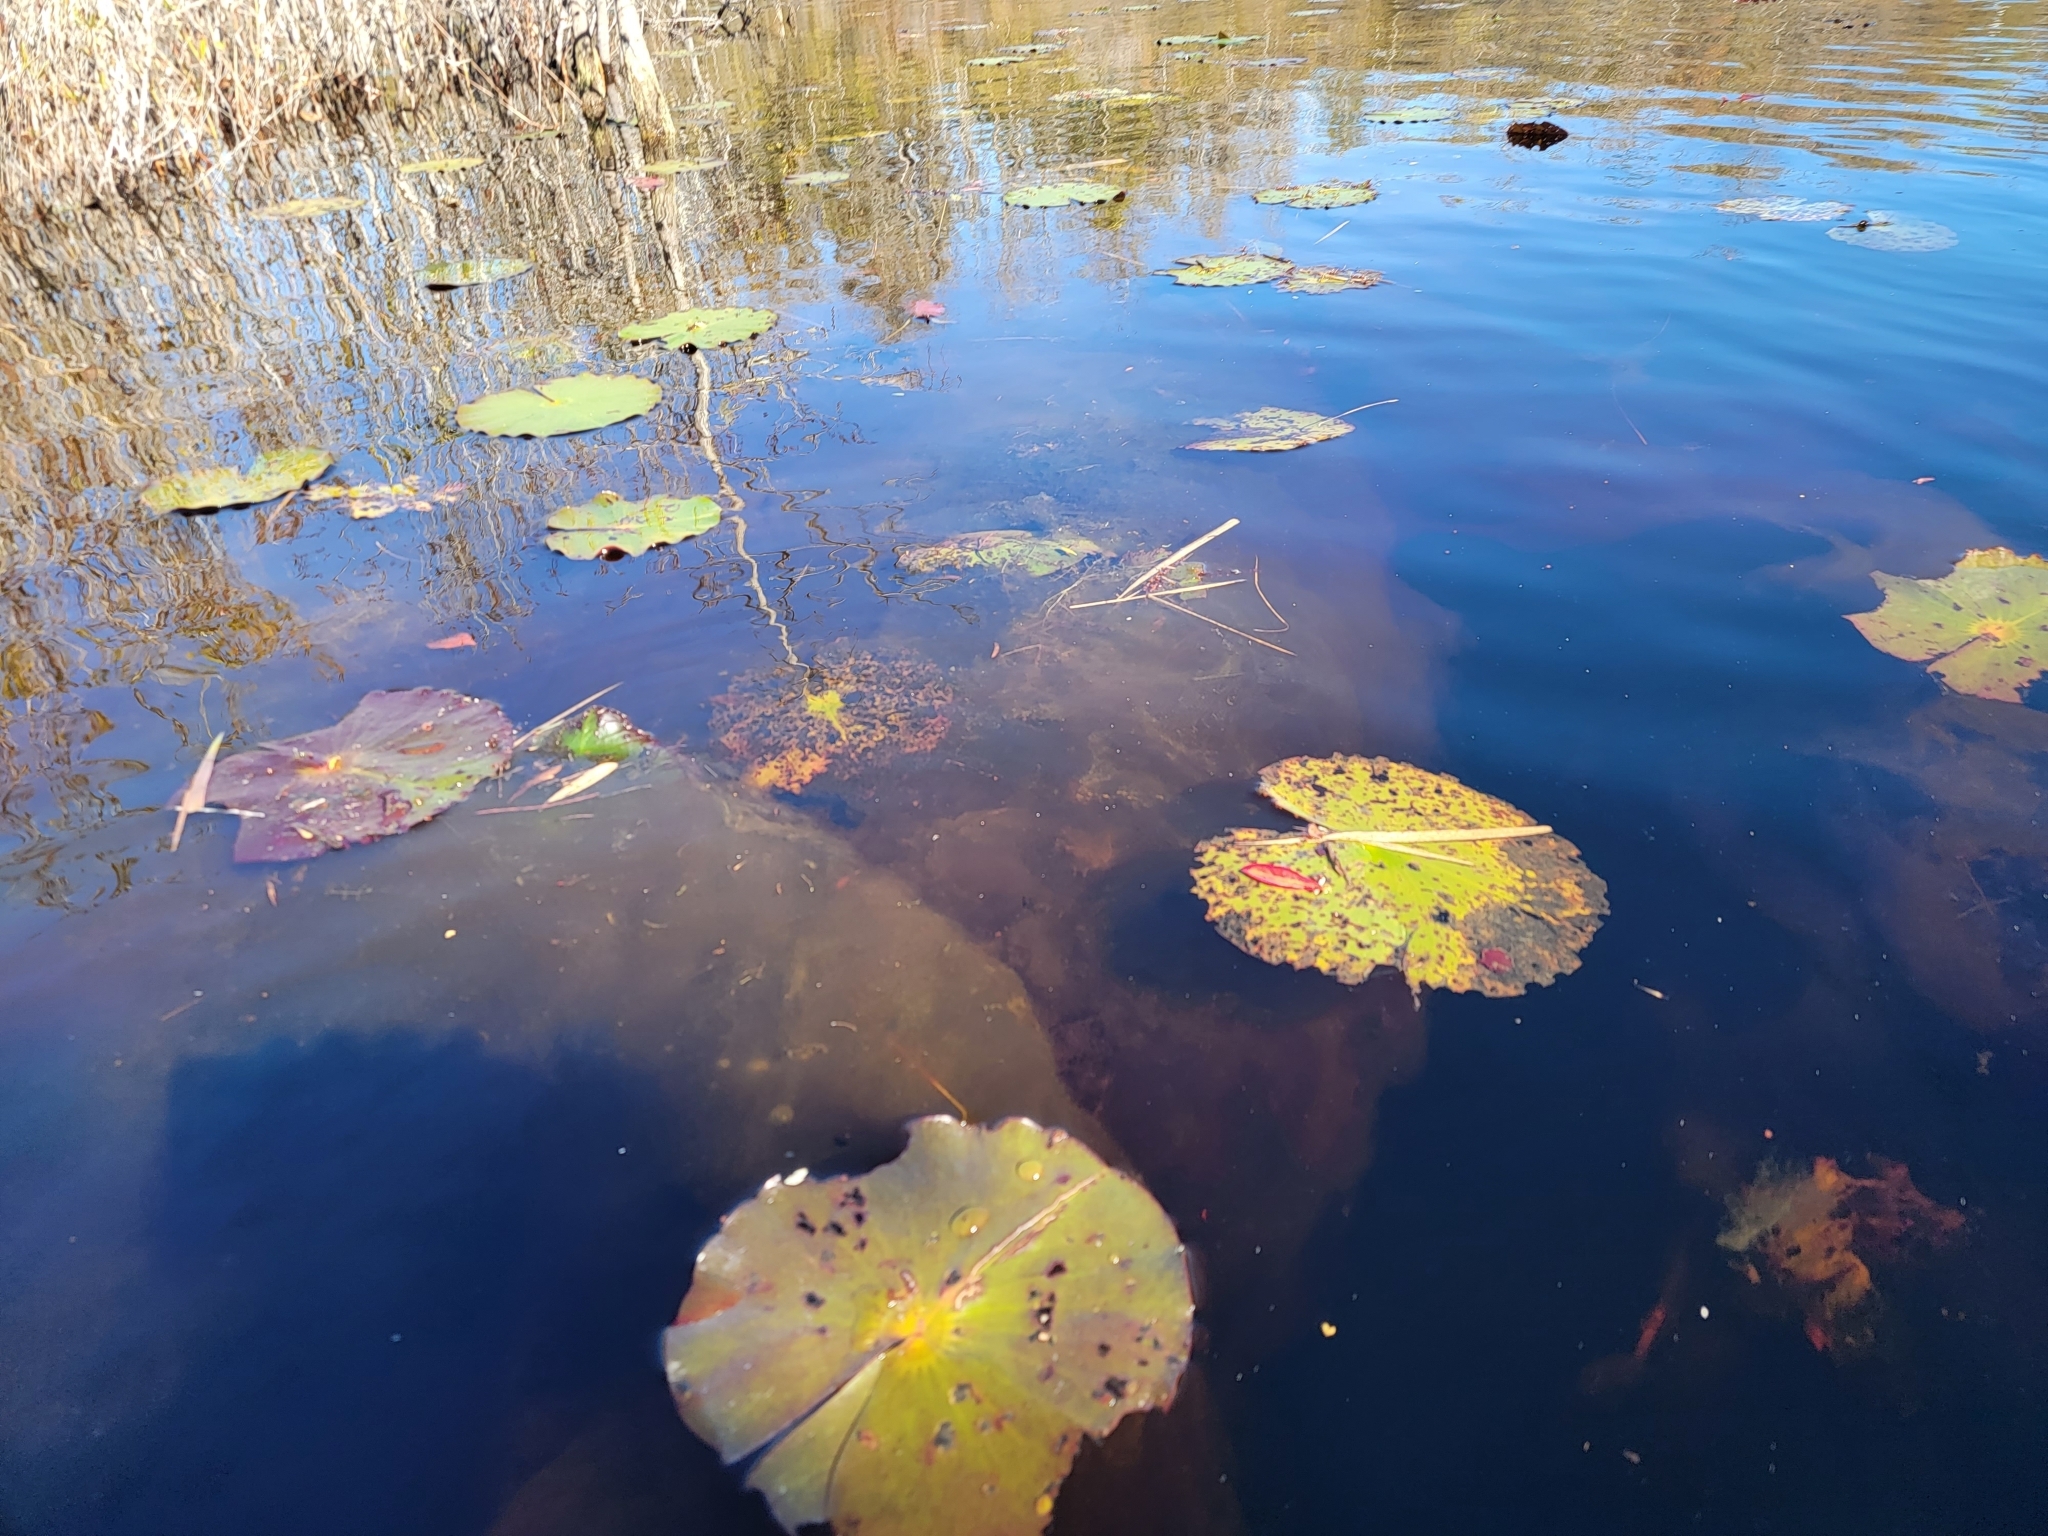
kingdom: Plantae
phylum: Tracheophyta
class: Magnoliopsida
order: Nymphaeales
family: Nymphaeaceae
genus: Nymphaea
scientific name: Nymphaea odorata
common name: Fragrant water-lily
